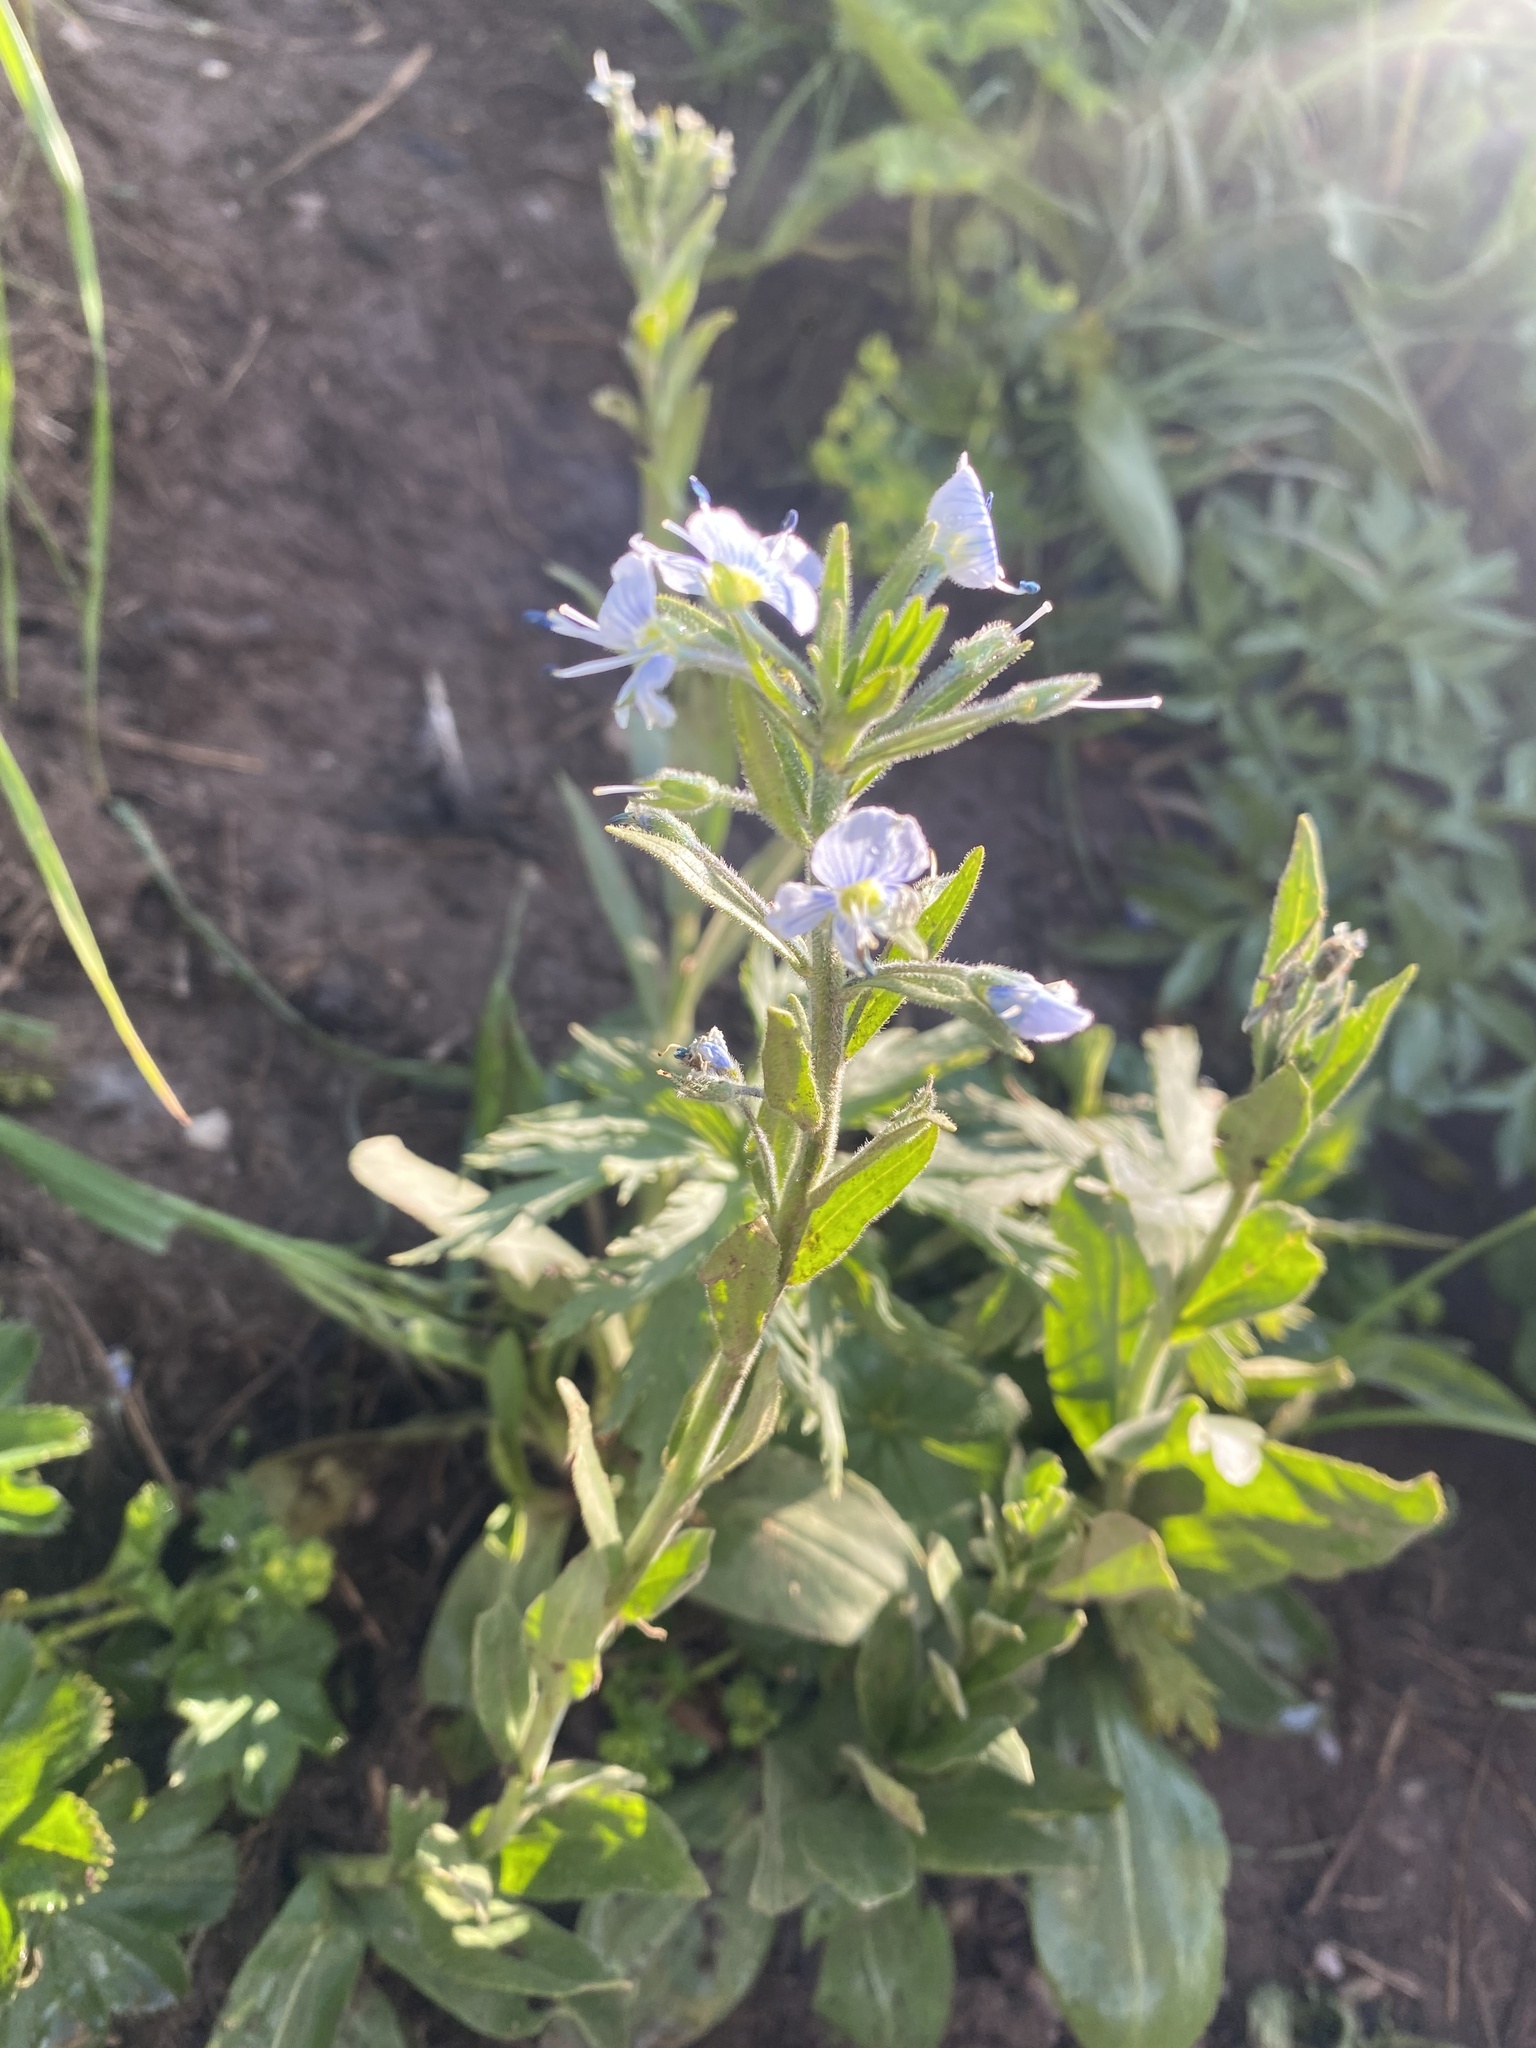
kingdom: Plantae
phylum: Tracheophyta
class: Magnoliopsida
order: Lamiales
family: Plantaginaceae
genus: Veronica
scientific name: Veronica gentianoides
